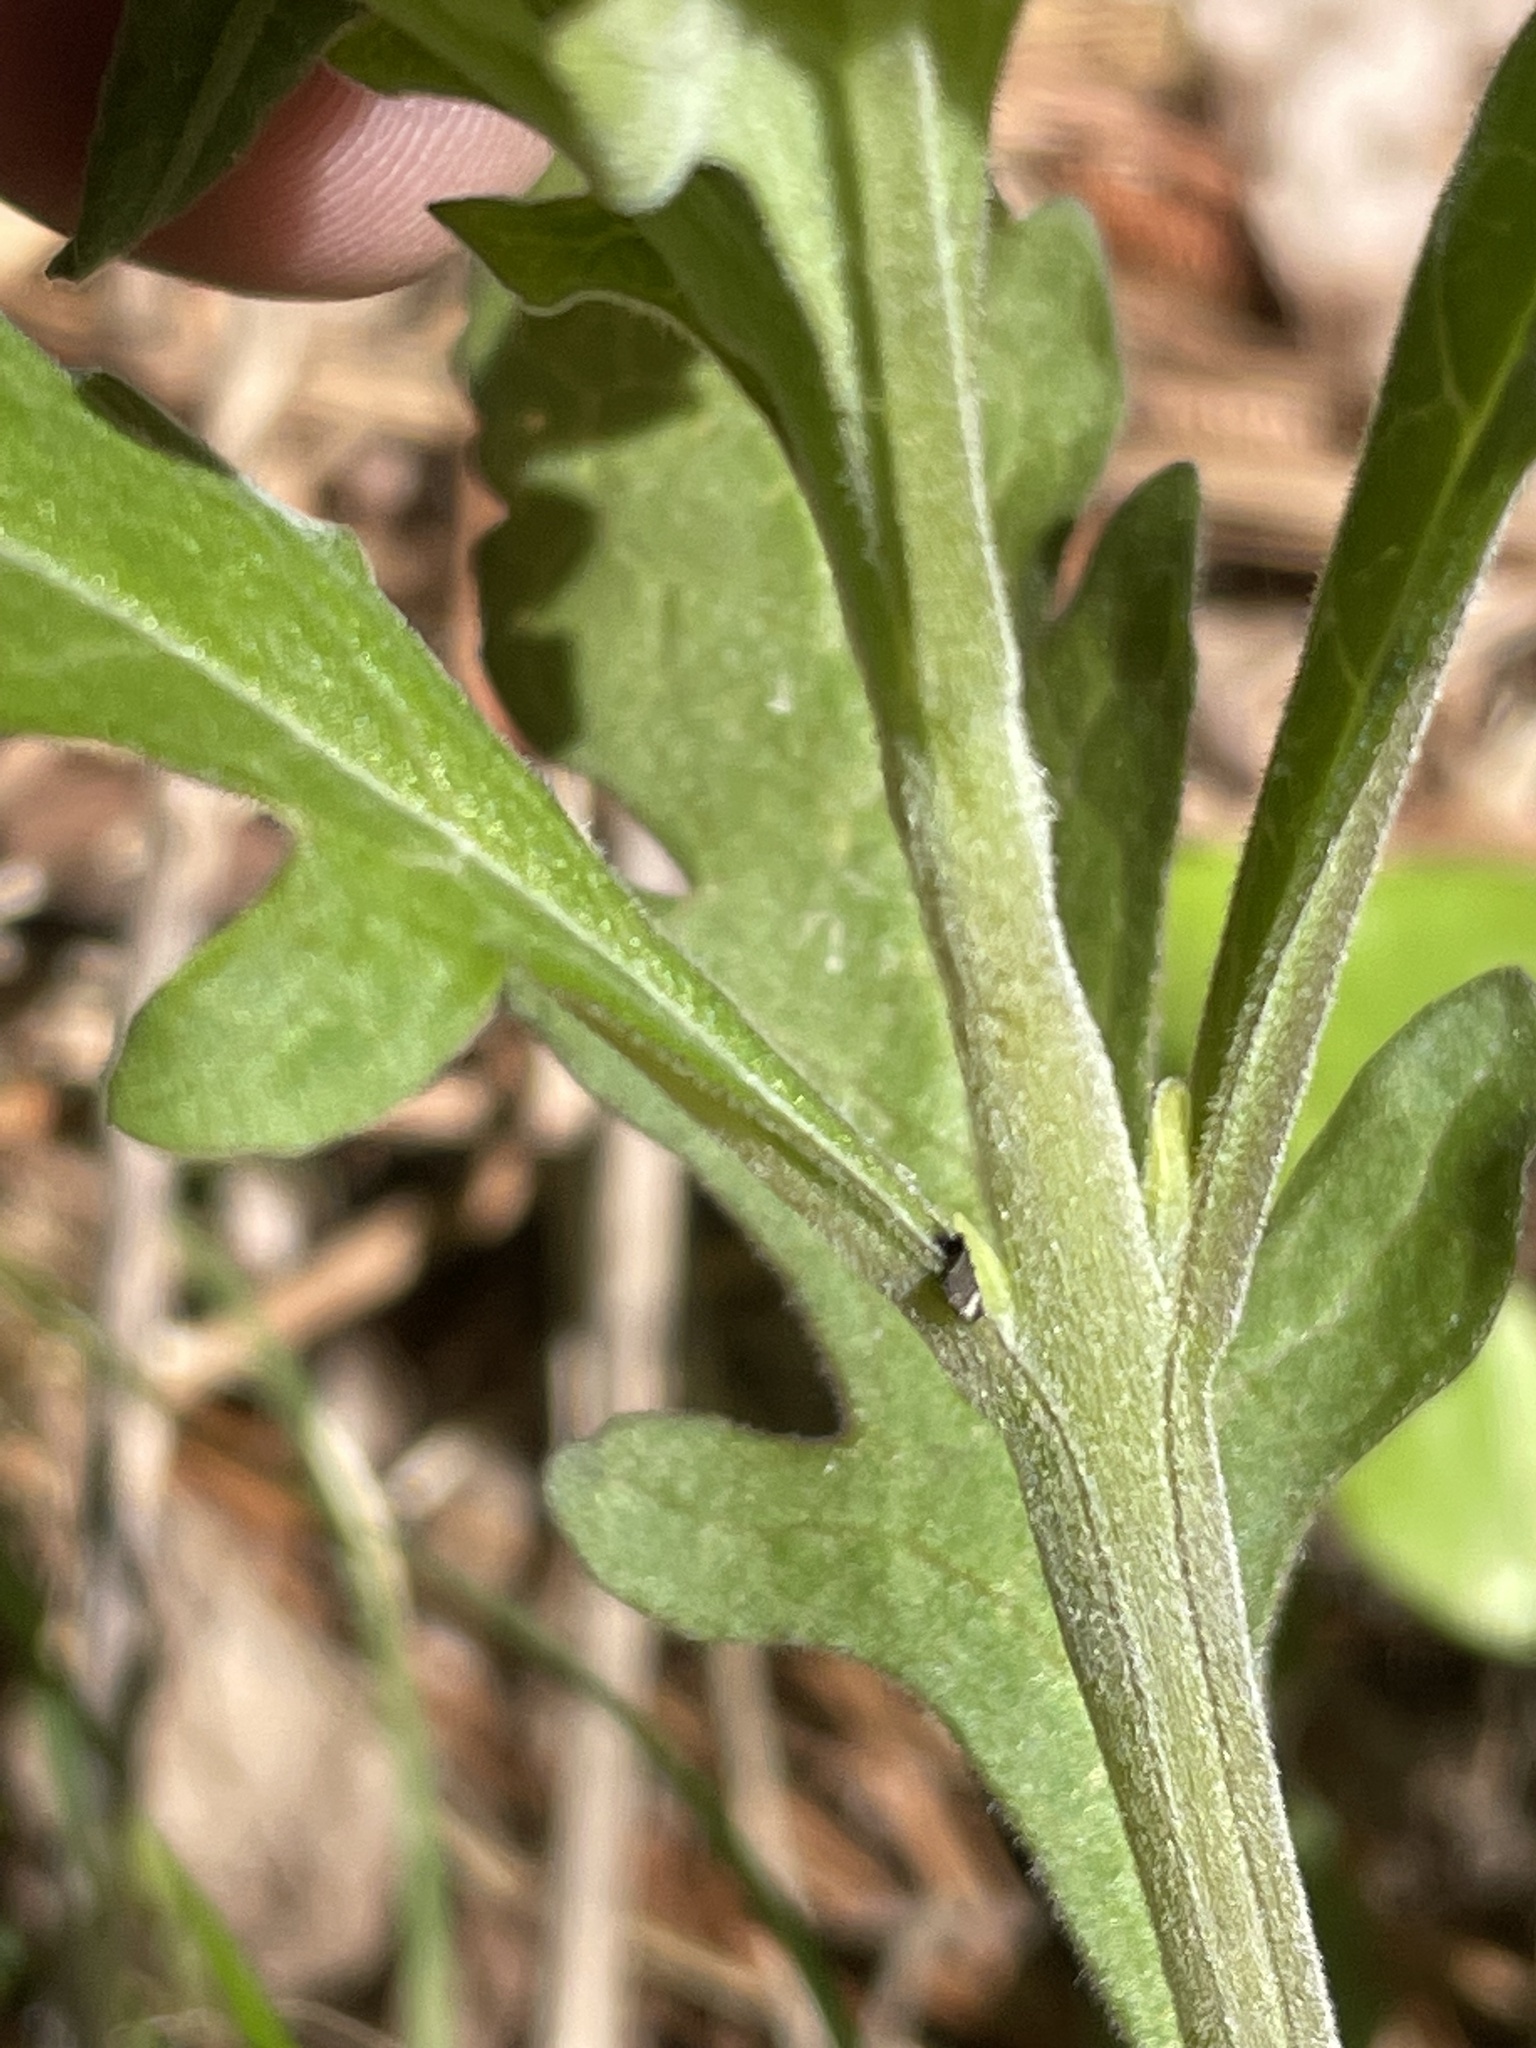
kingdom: Plantae
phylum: Tracheophyta
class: Magnoliopsida
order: Lamiales
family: Orobanchaceae
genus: Aureolaria
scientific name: Aureolaria virginica
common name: Downy false foxglove
